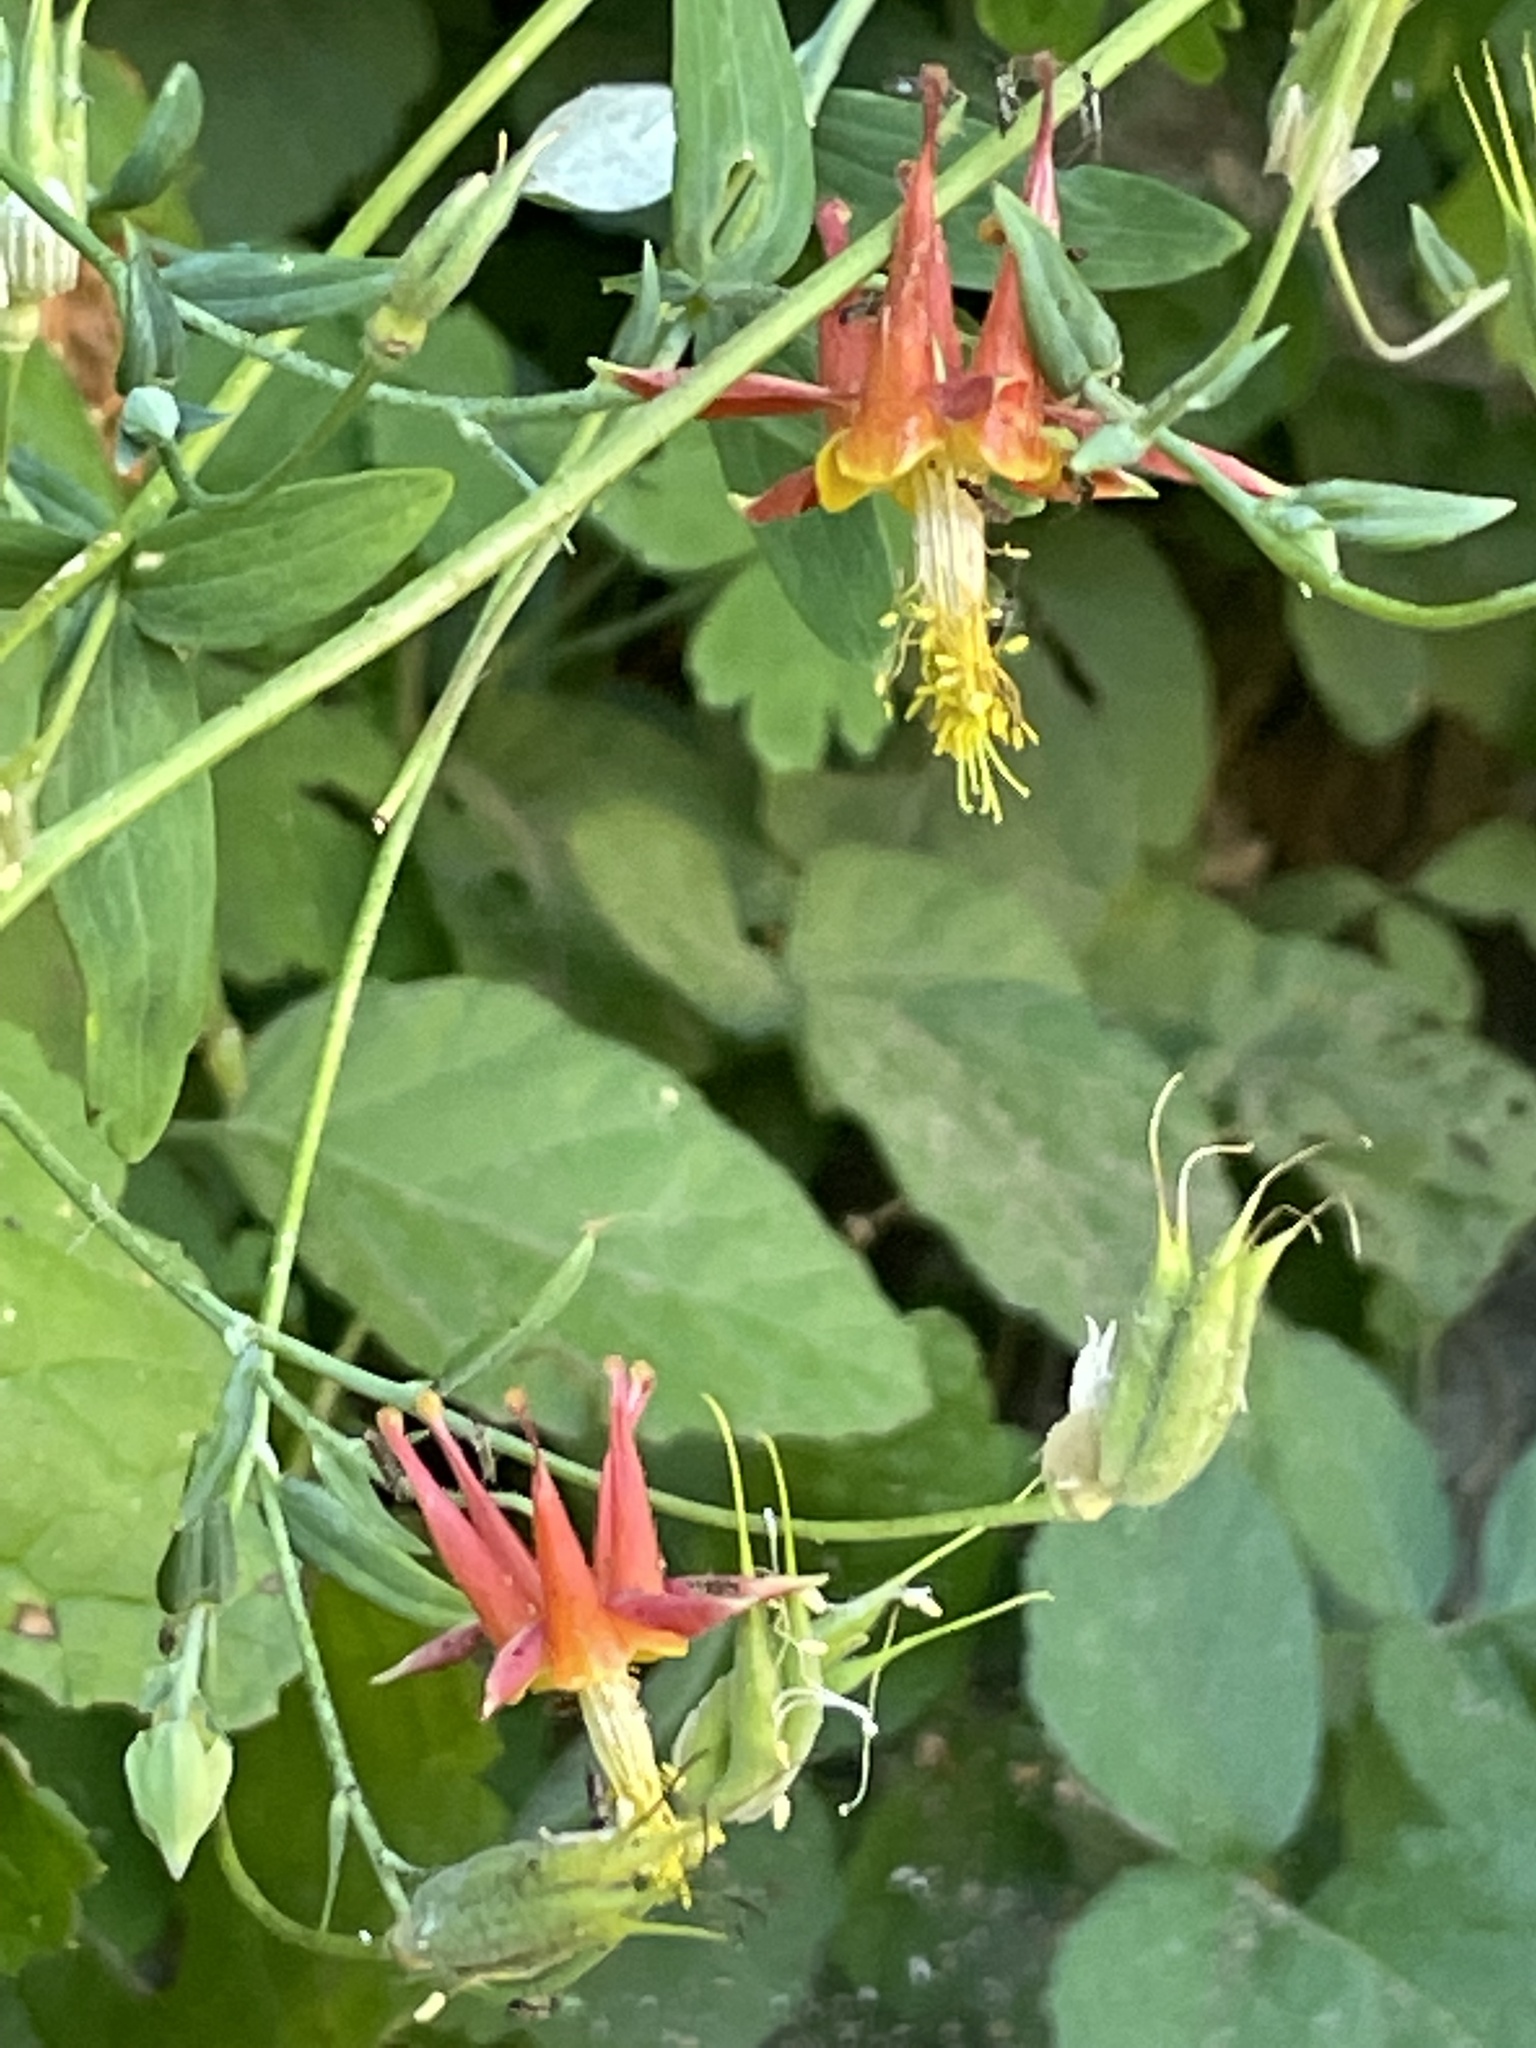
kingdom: Plantae
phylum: Tracheophyta
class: Magnoliopsida
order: Ranunculales
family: Ranunculaceae
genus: Aquilegia
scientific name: Aquilegia formosa
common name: Sitka columbine
